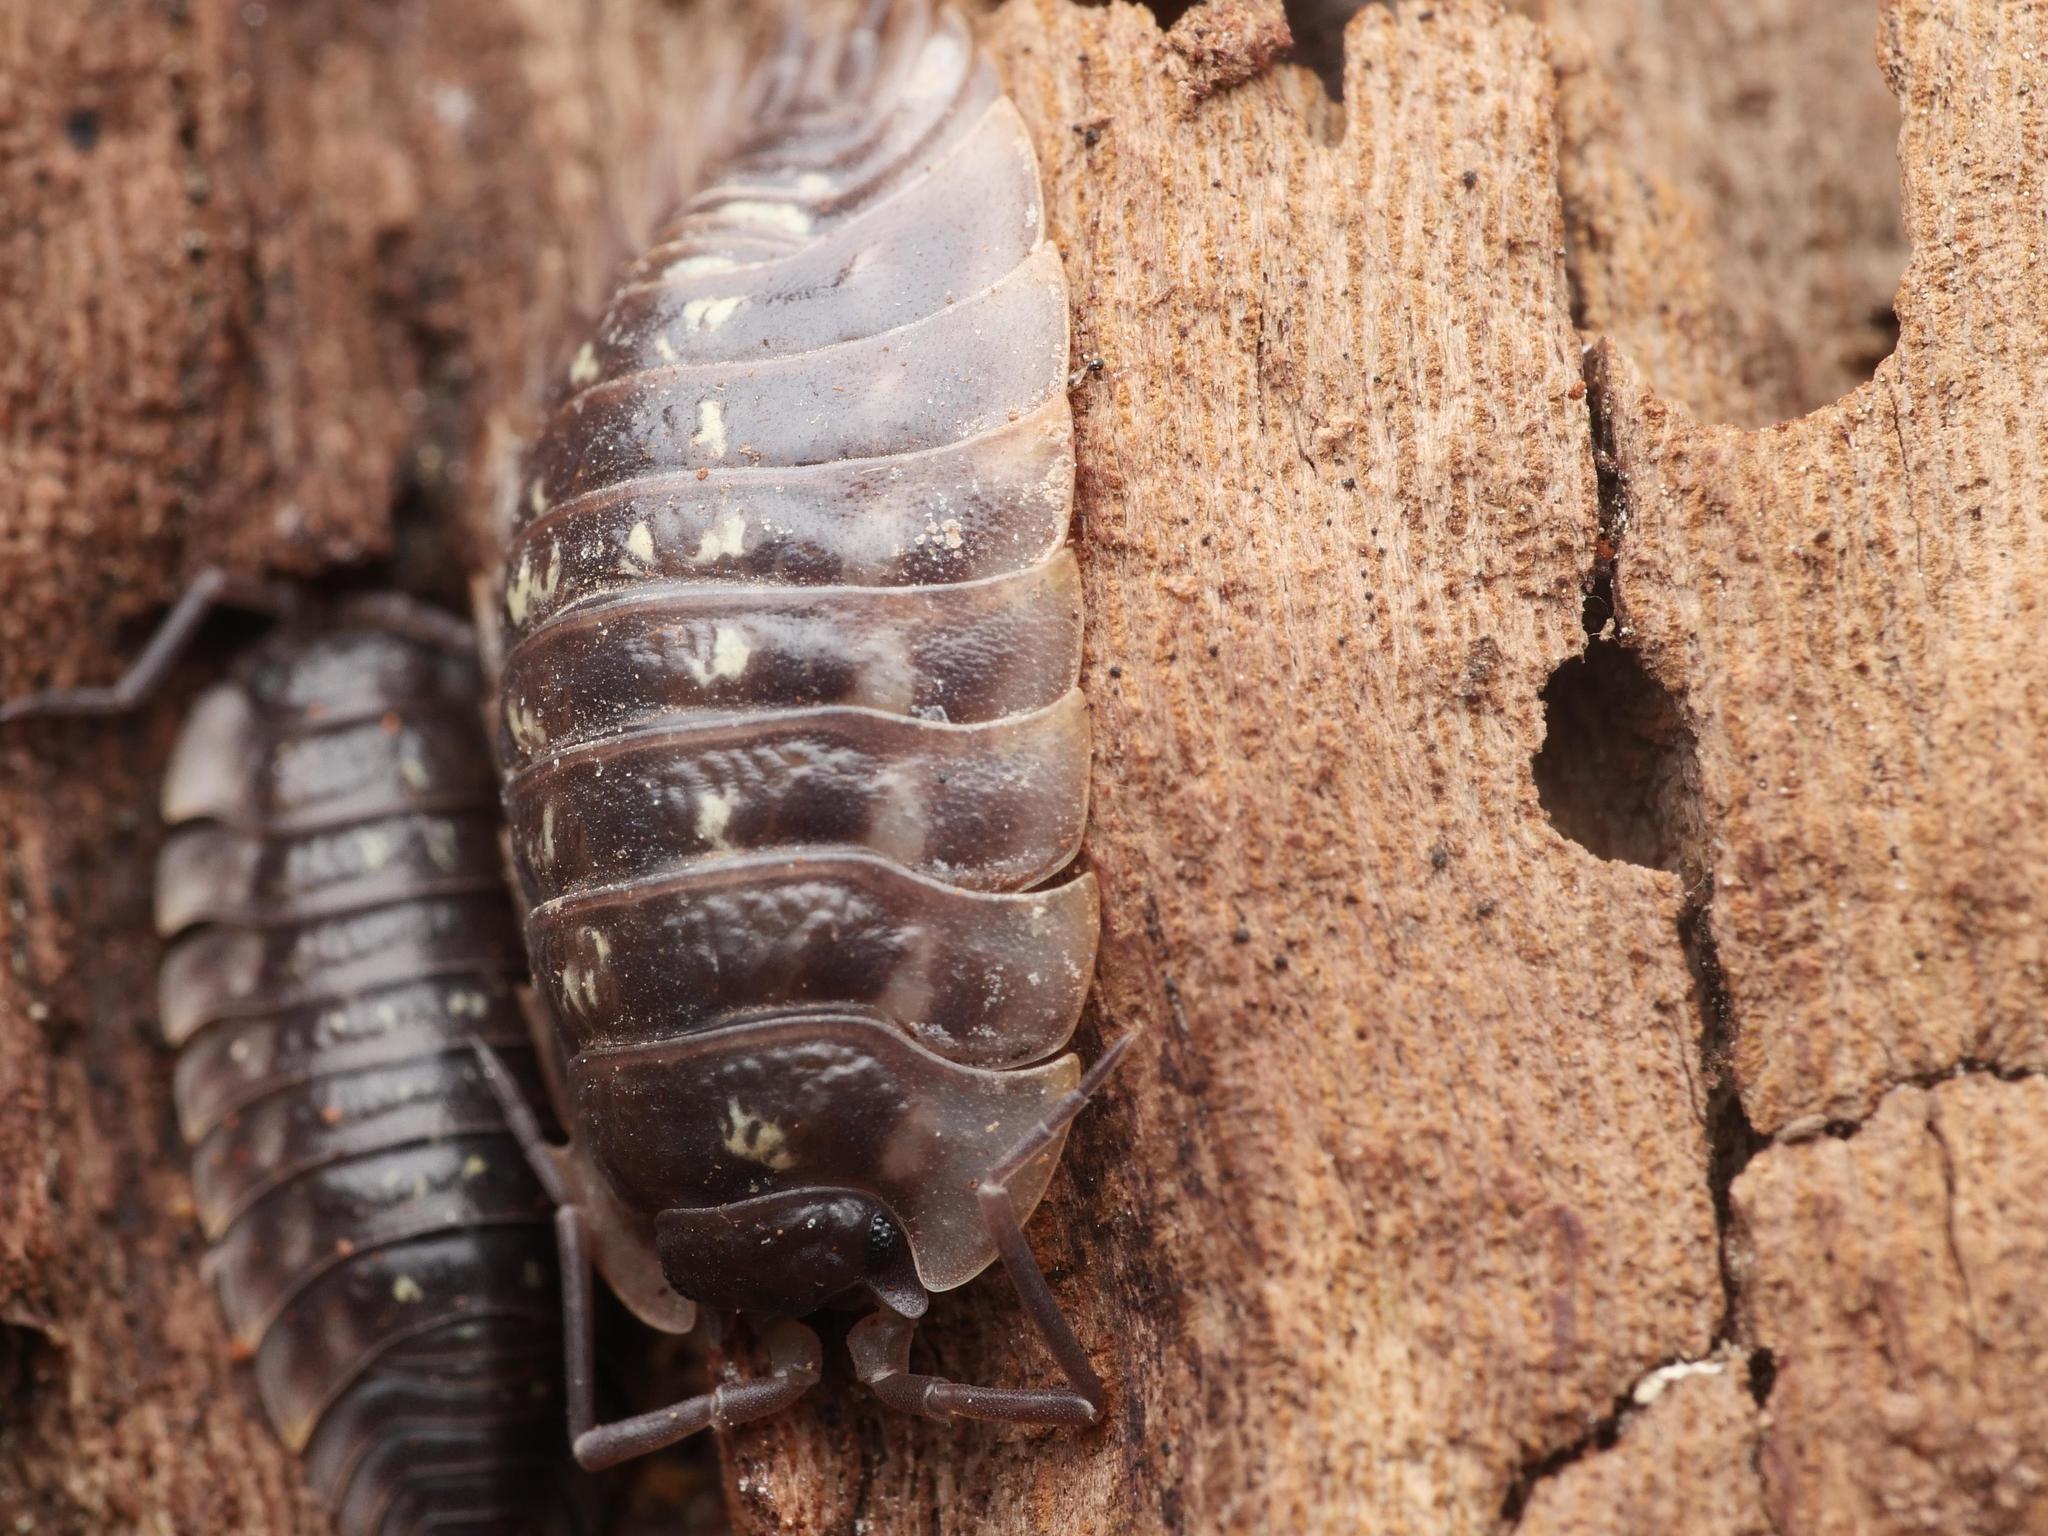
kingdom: Animalia
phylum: Arthropoda
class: Malacostraca
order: Isopoda
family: Oniscidae
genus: Oniscus
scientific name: Oniscus asellus
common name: Common shiny woodlouse
